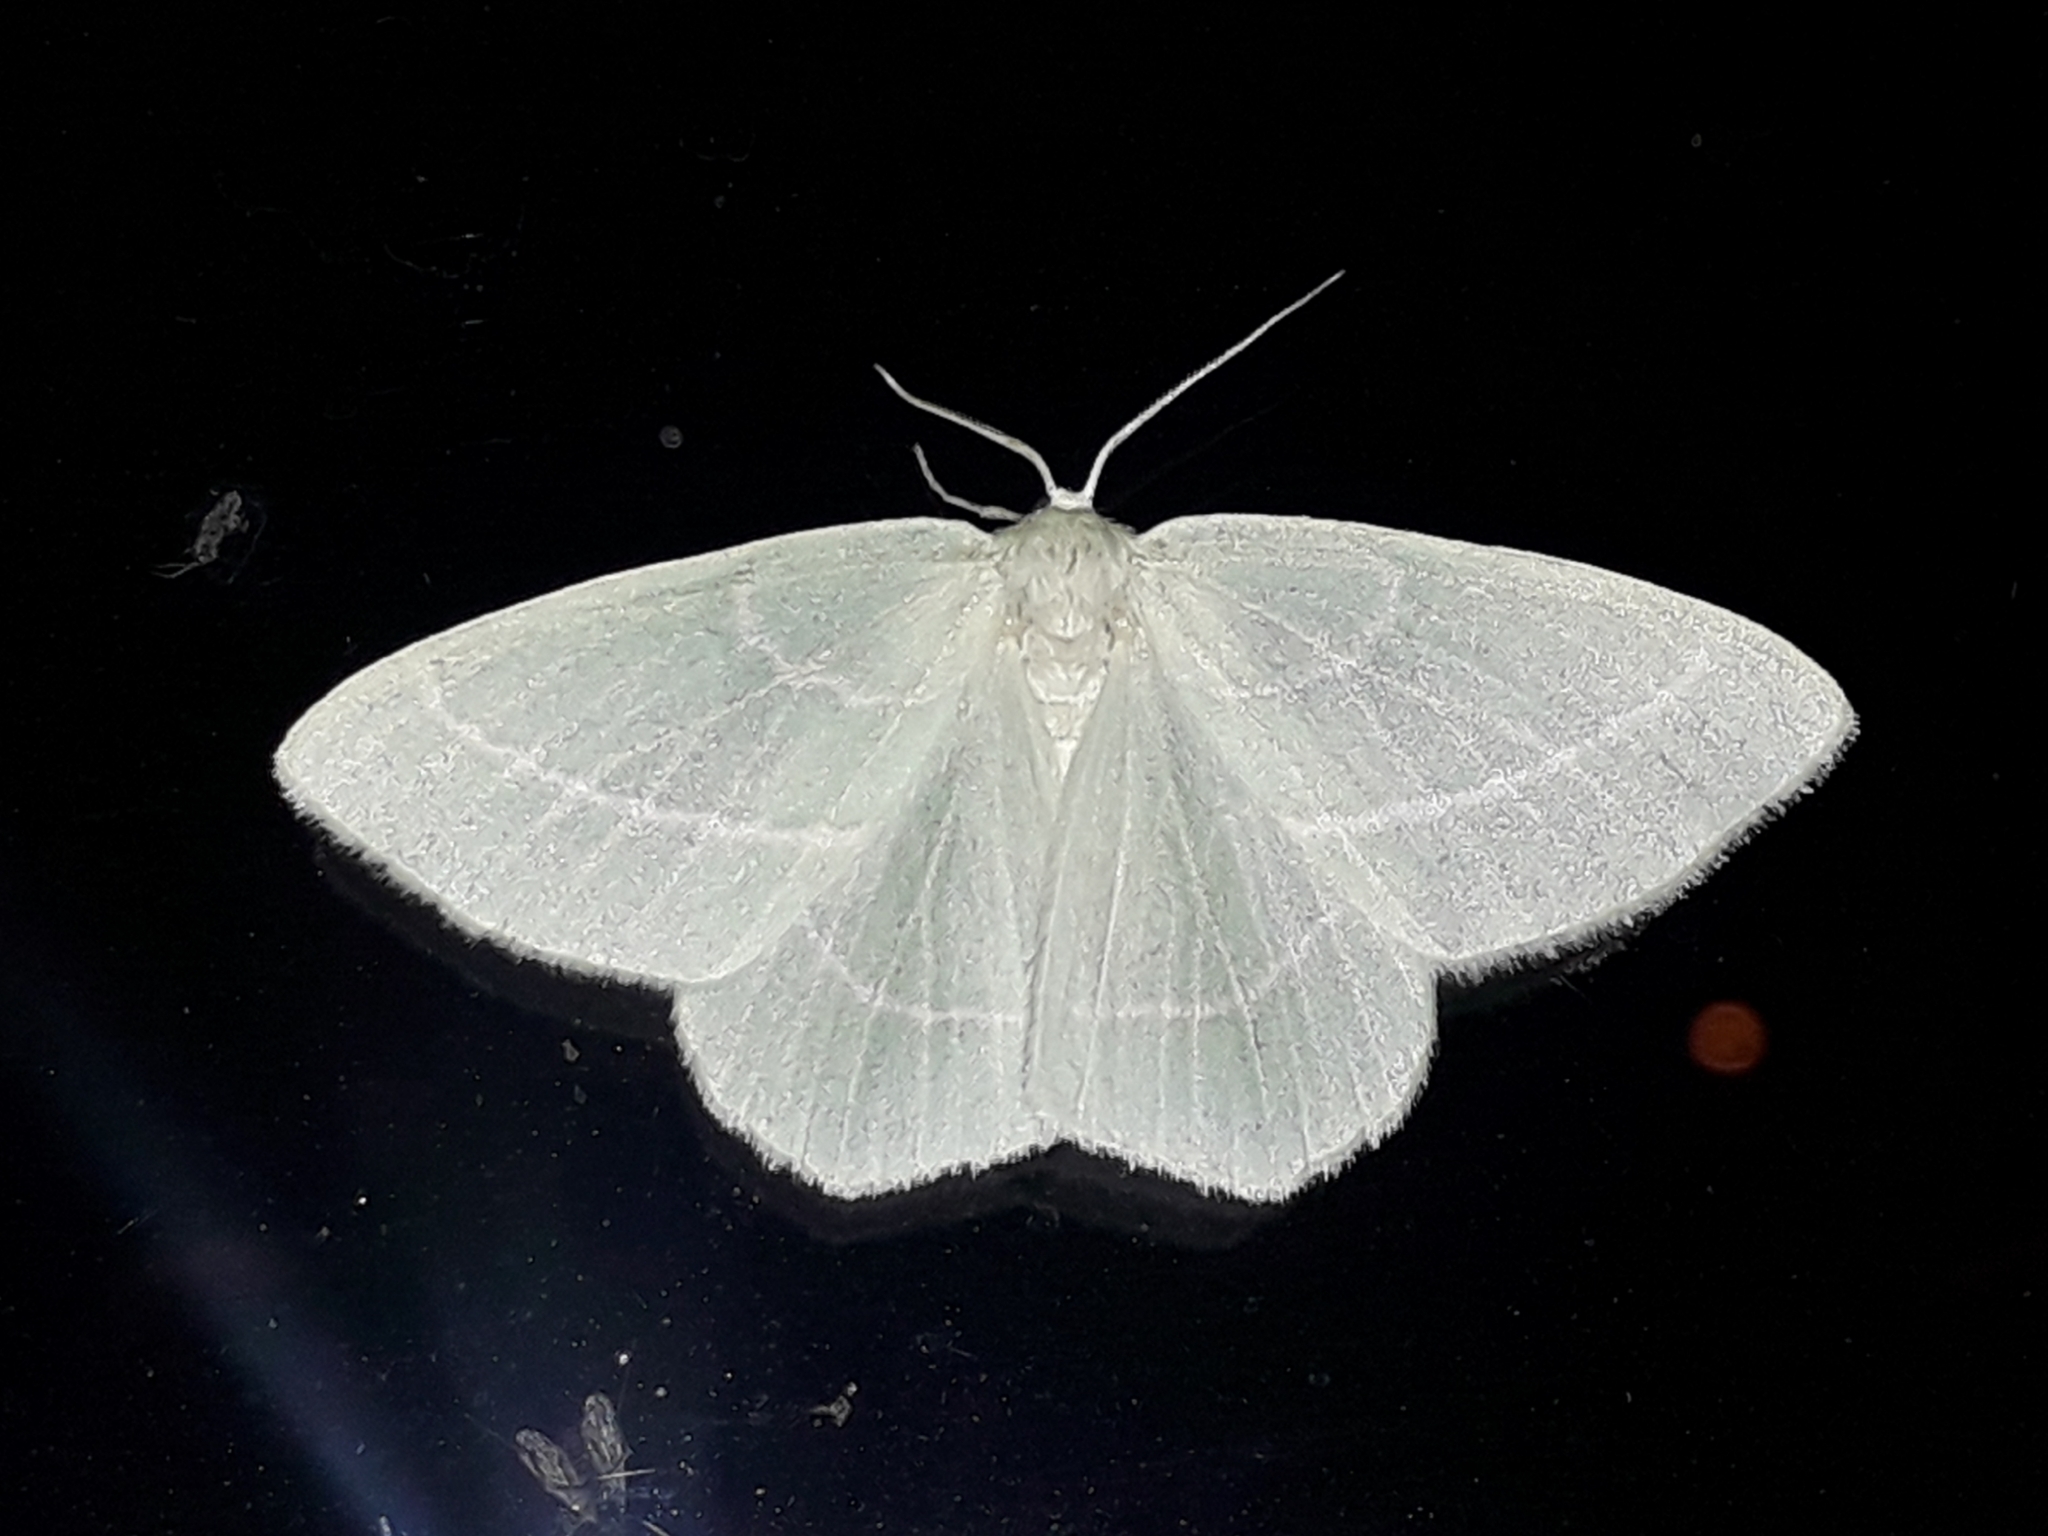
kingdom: Animalia
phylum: Arthropoda
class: Insecta
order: Lepidoptera
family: Geometridae
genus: Hemistola
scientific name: Hemistola chrysoprasaria
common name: Small emerald
